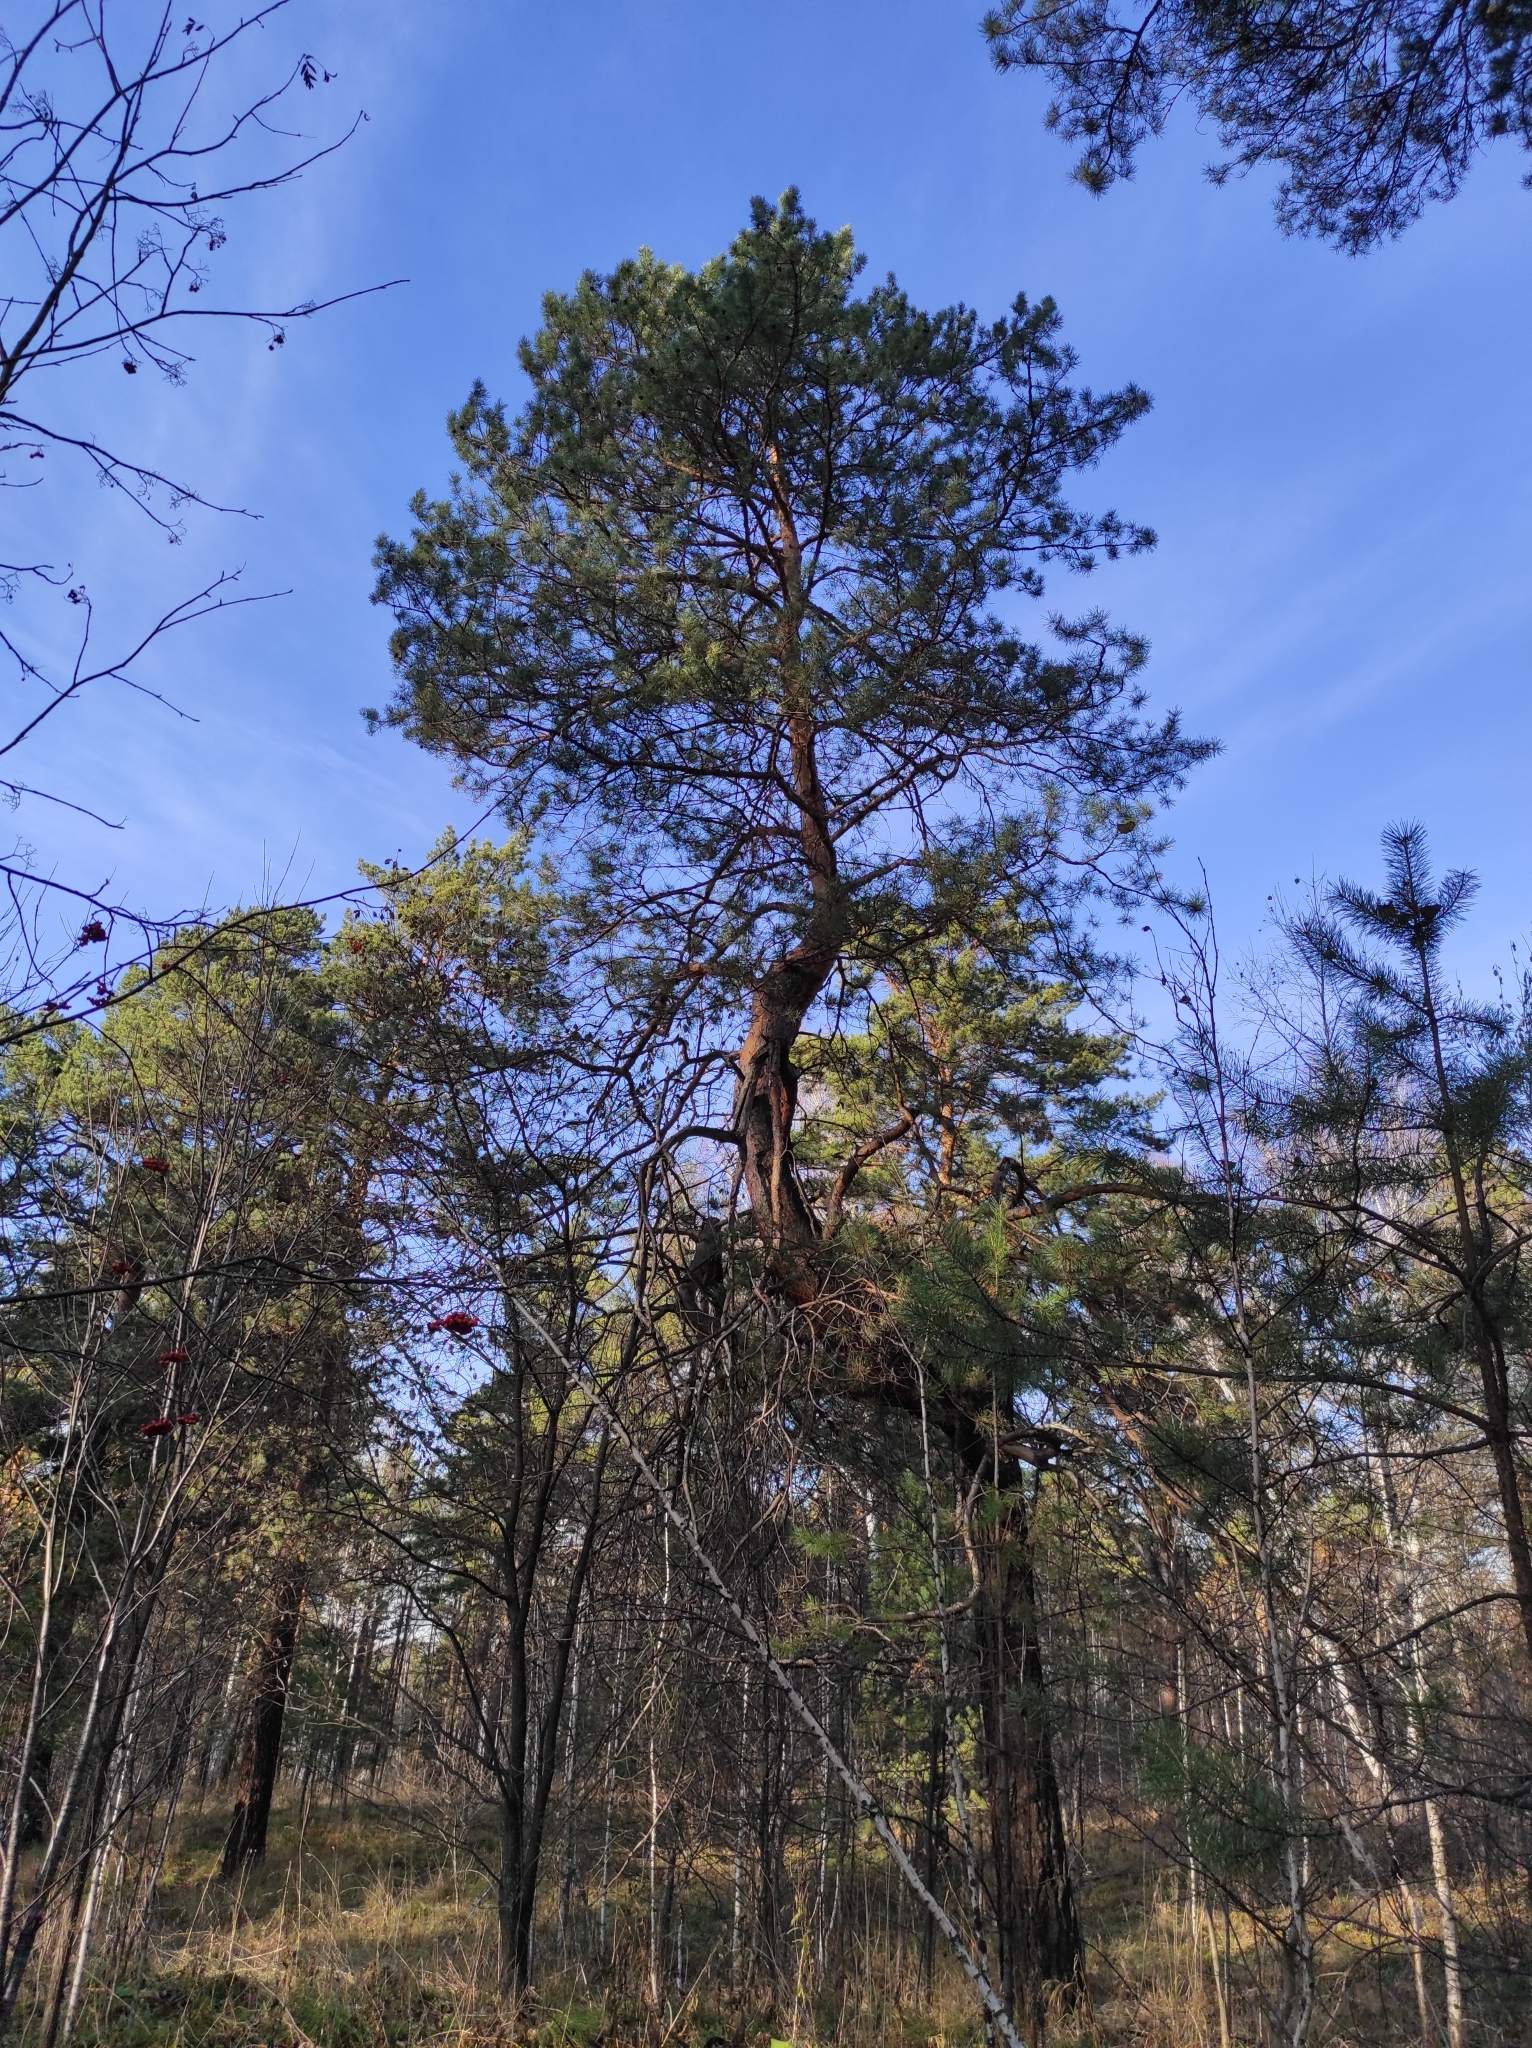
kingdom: Plantae
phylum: Tracheophyta
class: Pinopsida
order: Pinales
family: Pinaceae
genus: Pinus
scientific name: Pinus sylvestris
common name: Scots pine
